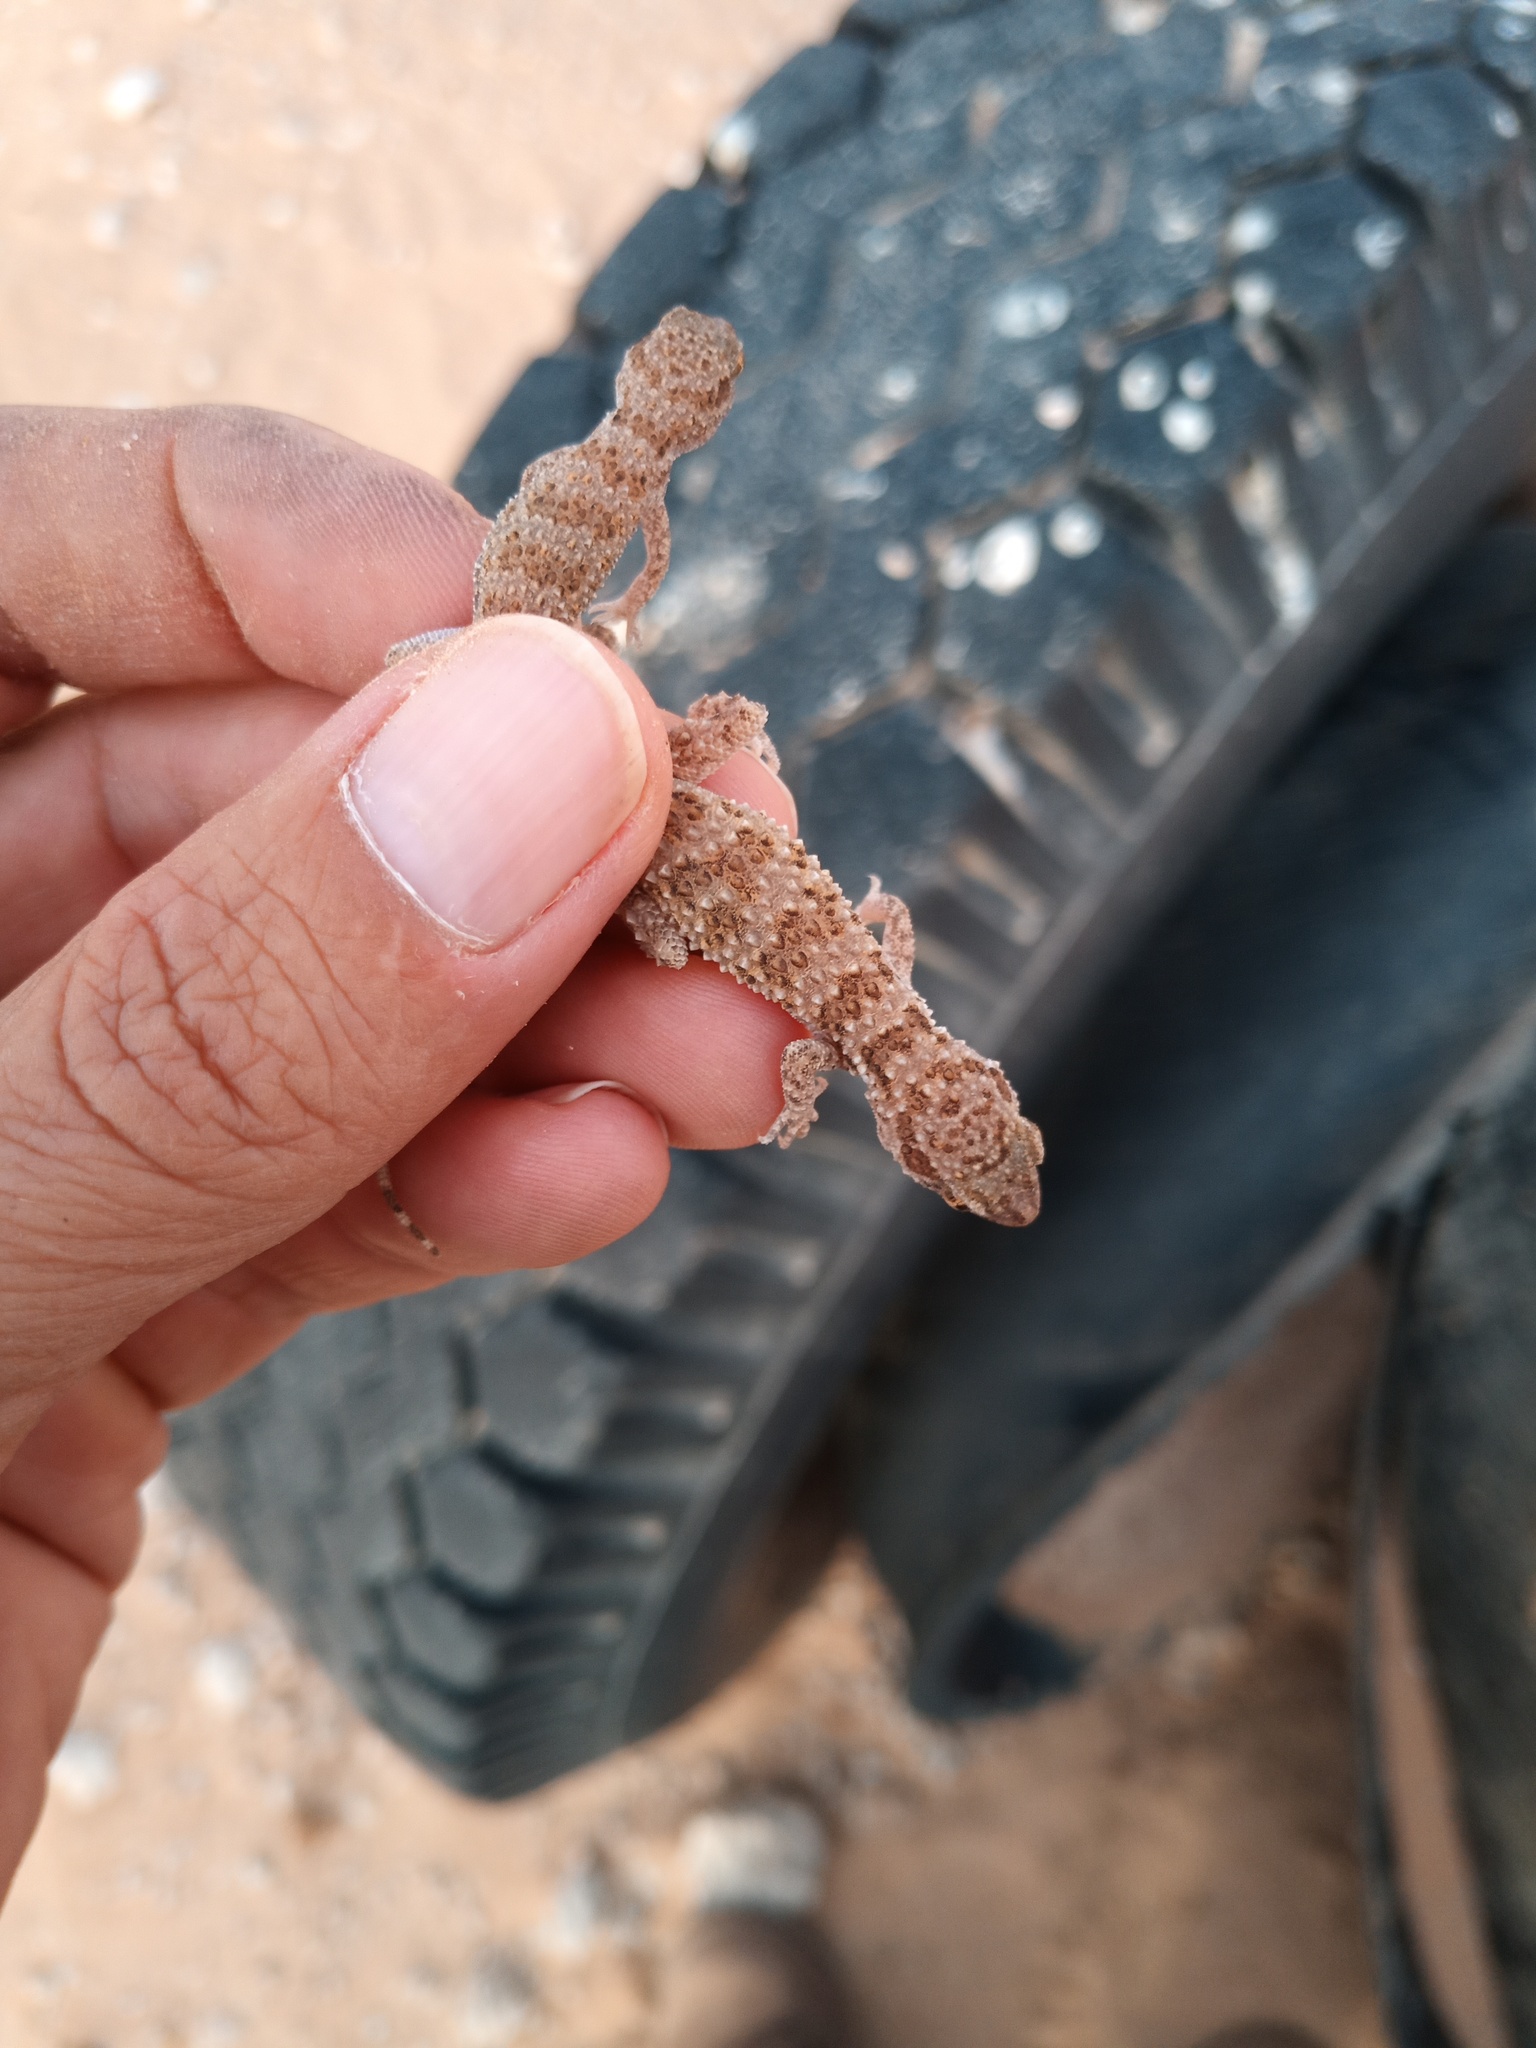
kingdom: Animalia
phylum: Chordata
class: Squamata
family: Gekkonidae
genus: Bunopus
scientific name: Bunopus tuberculatus
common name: Southern tuberculated gecko
